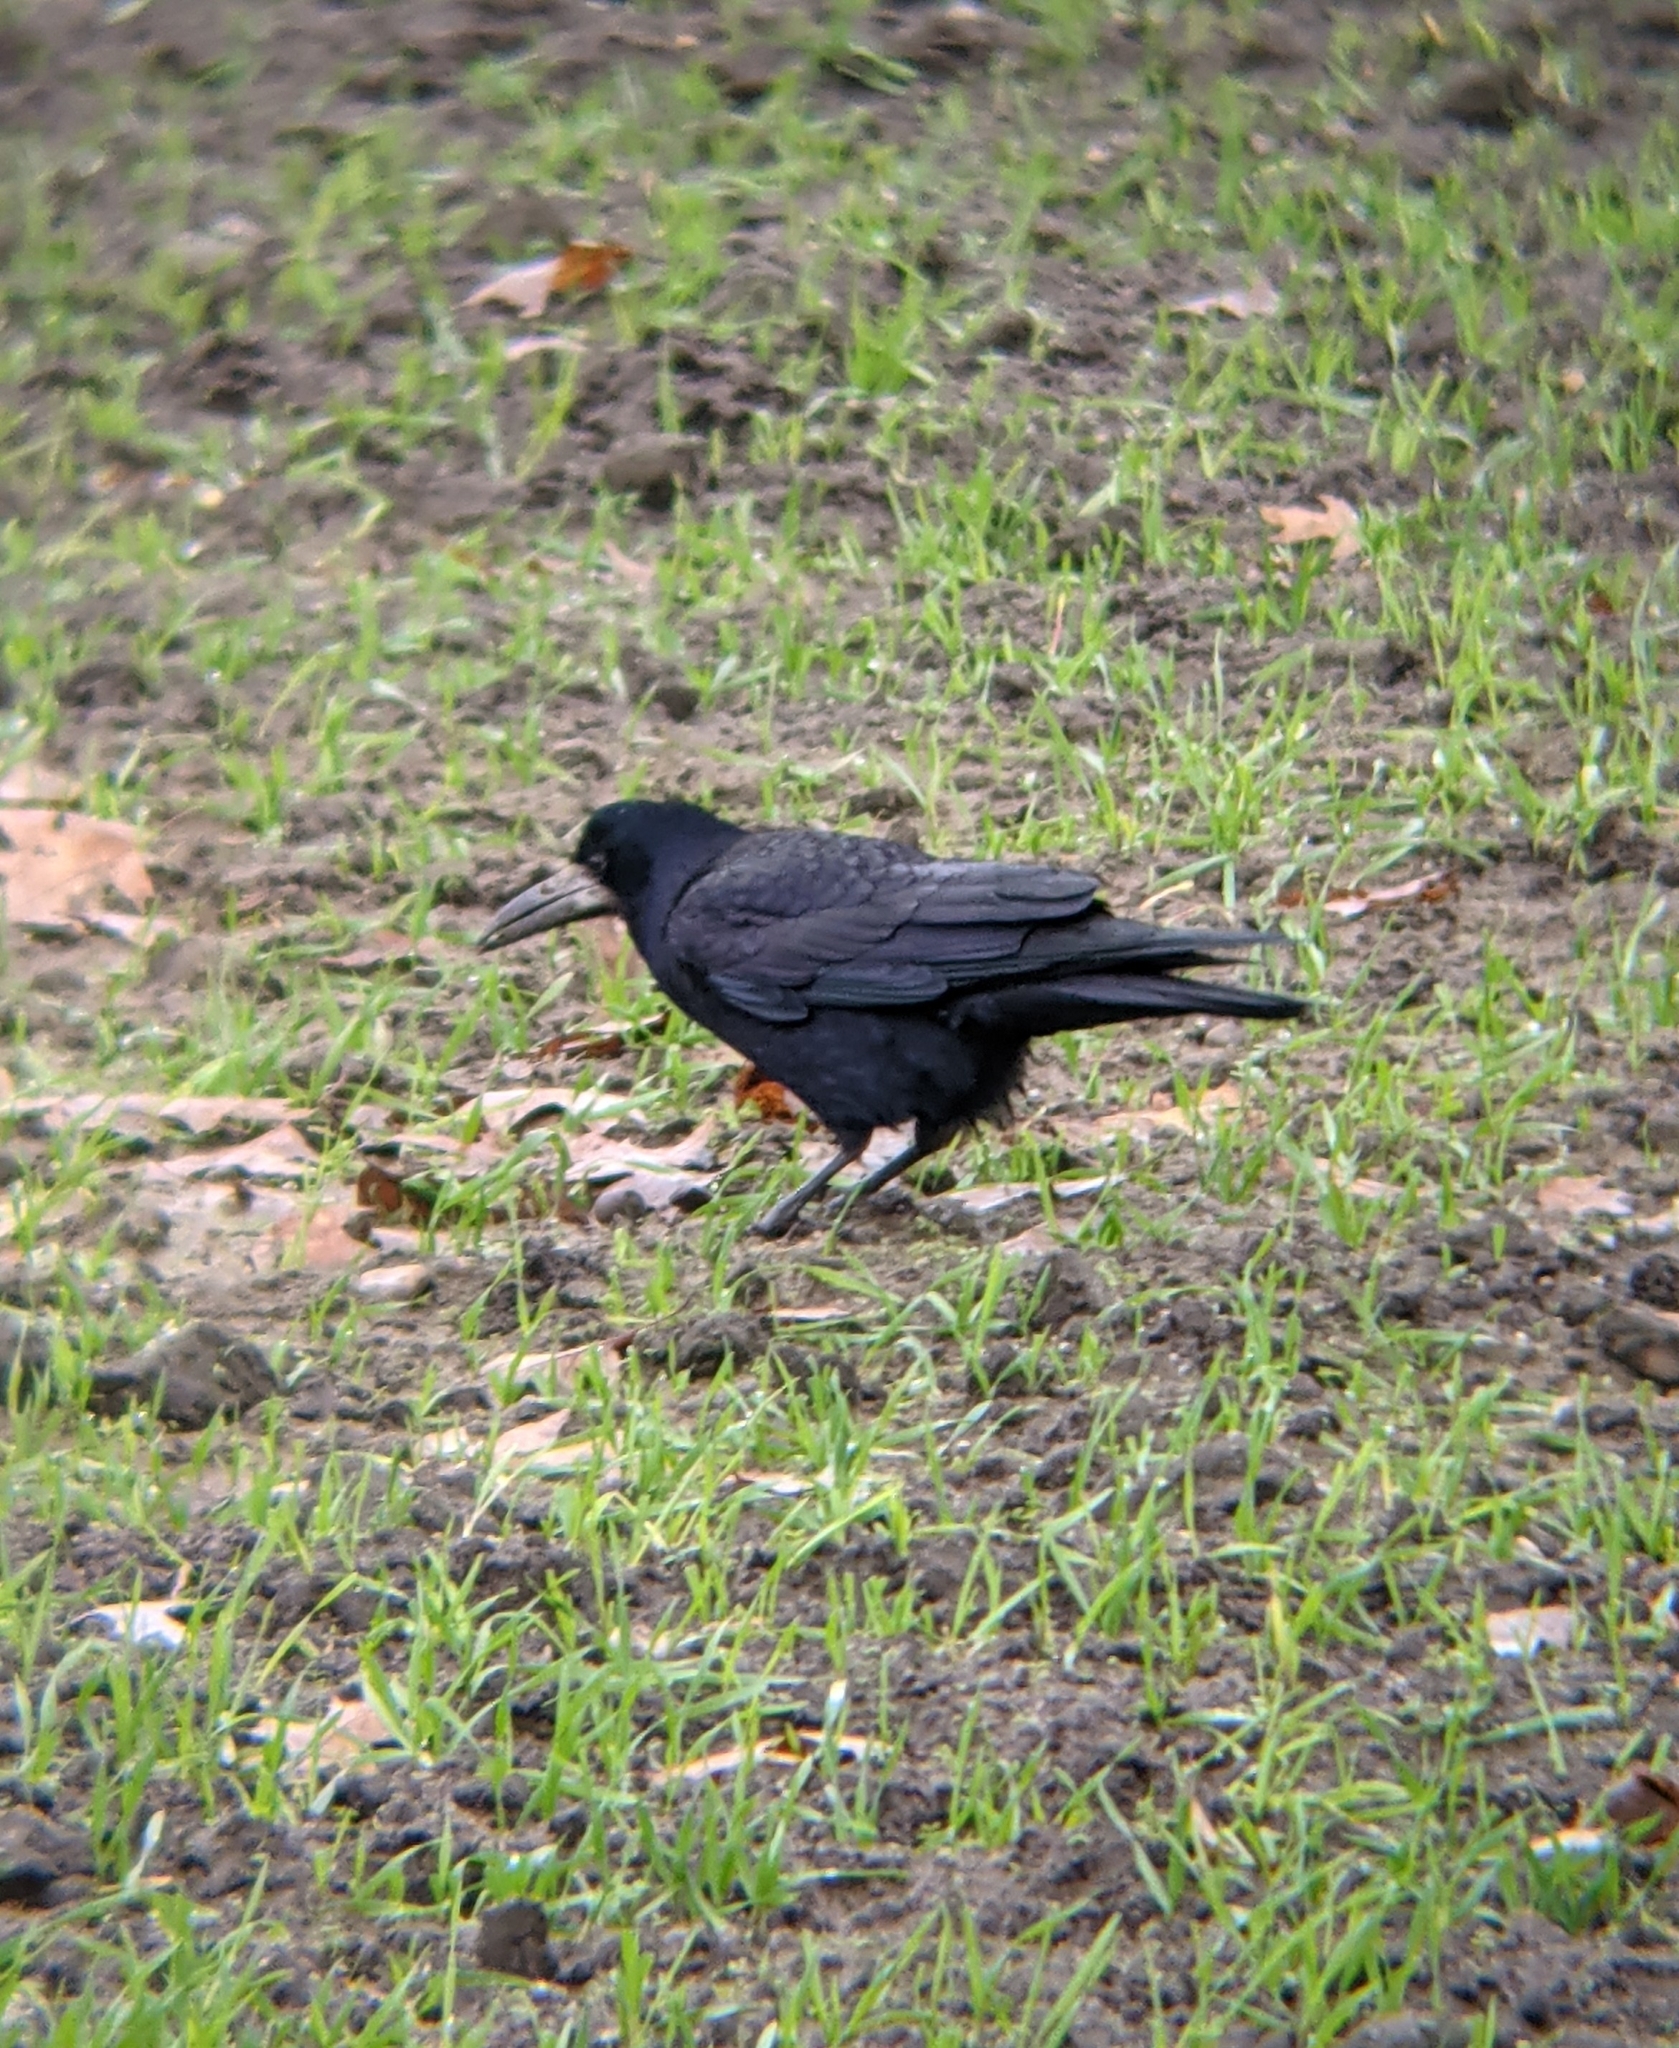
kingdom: Animalia
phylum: Chordata
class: Aves
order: Passeriformes
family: Corvidae
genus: Corvus
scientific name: Corvus frugilegus
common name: Rook
